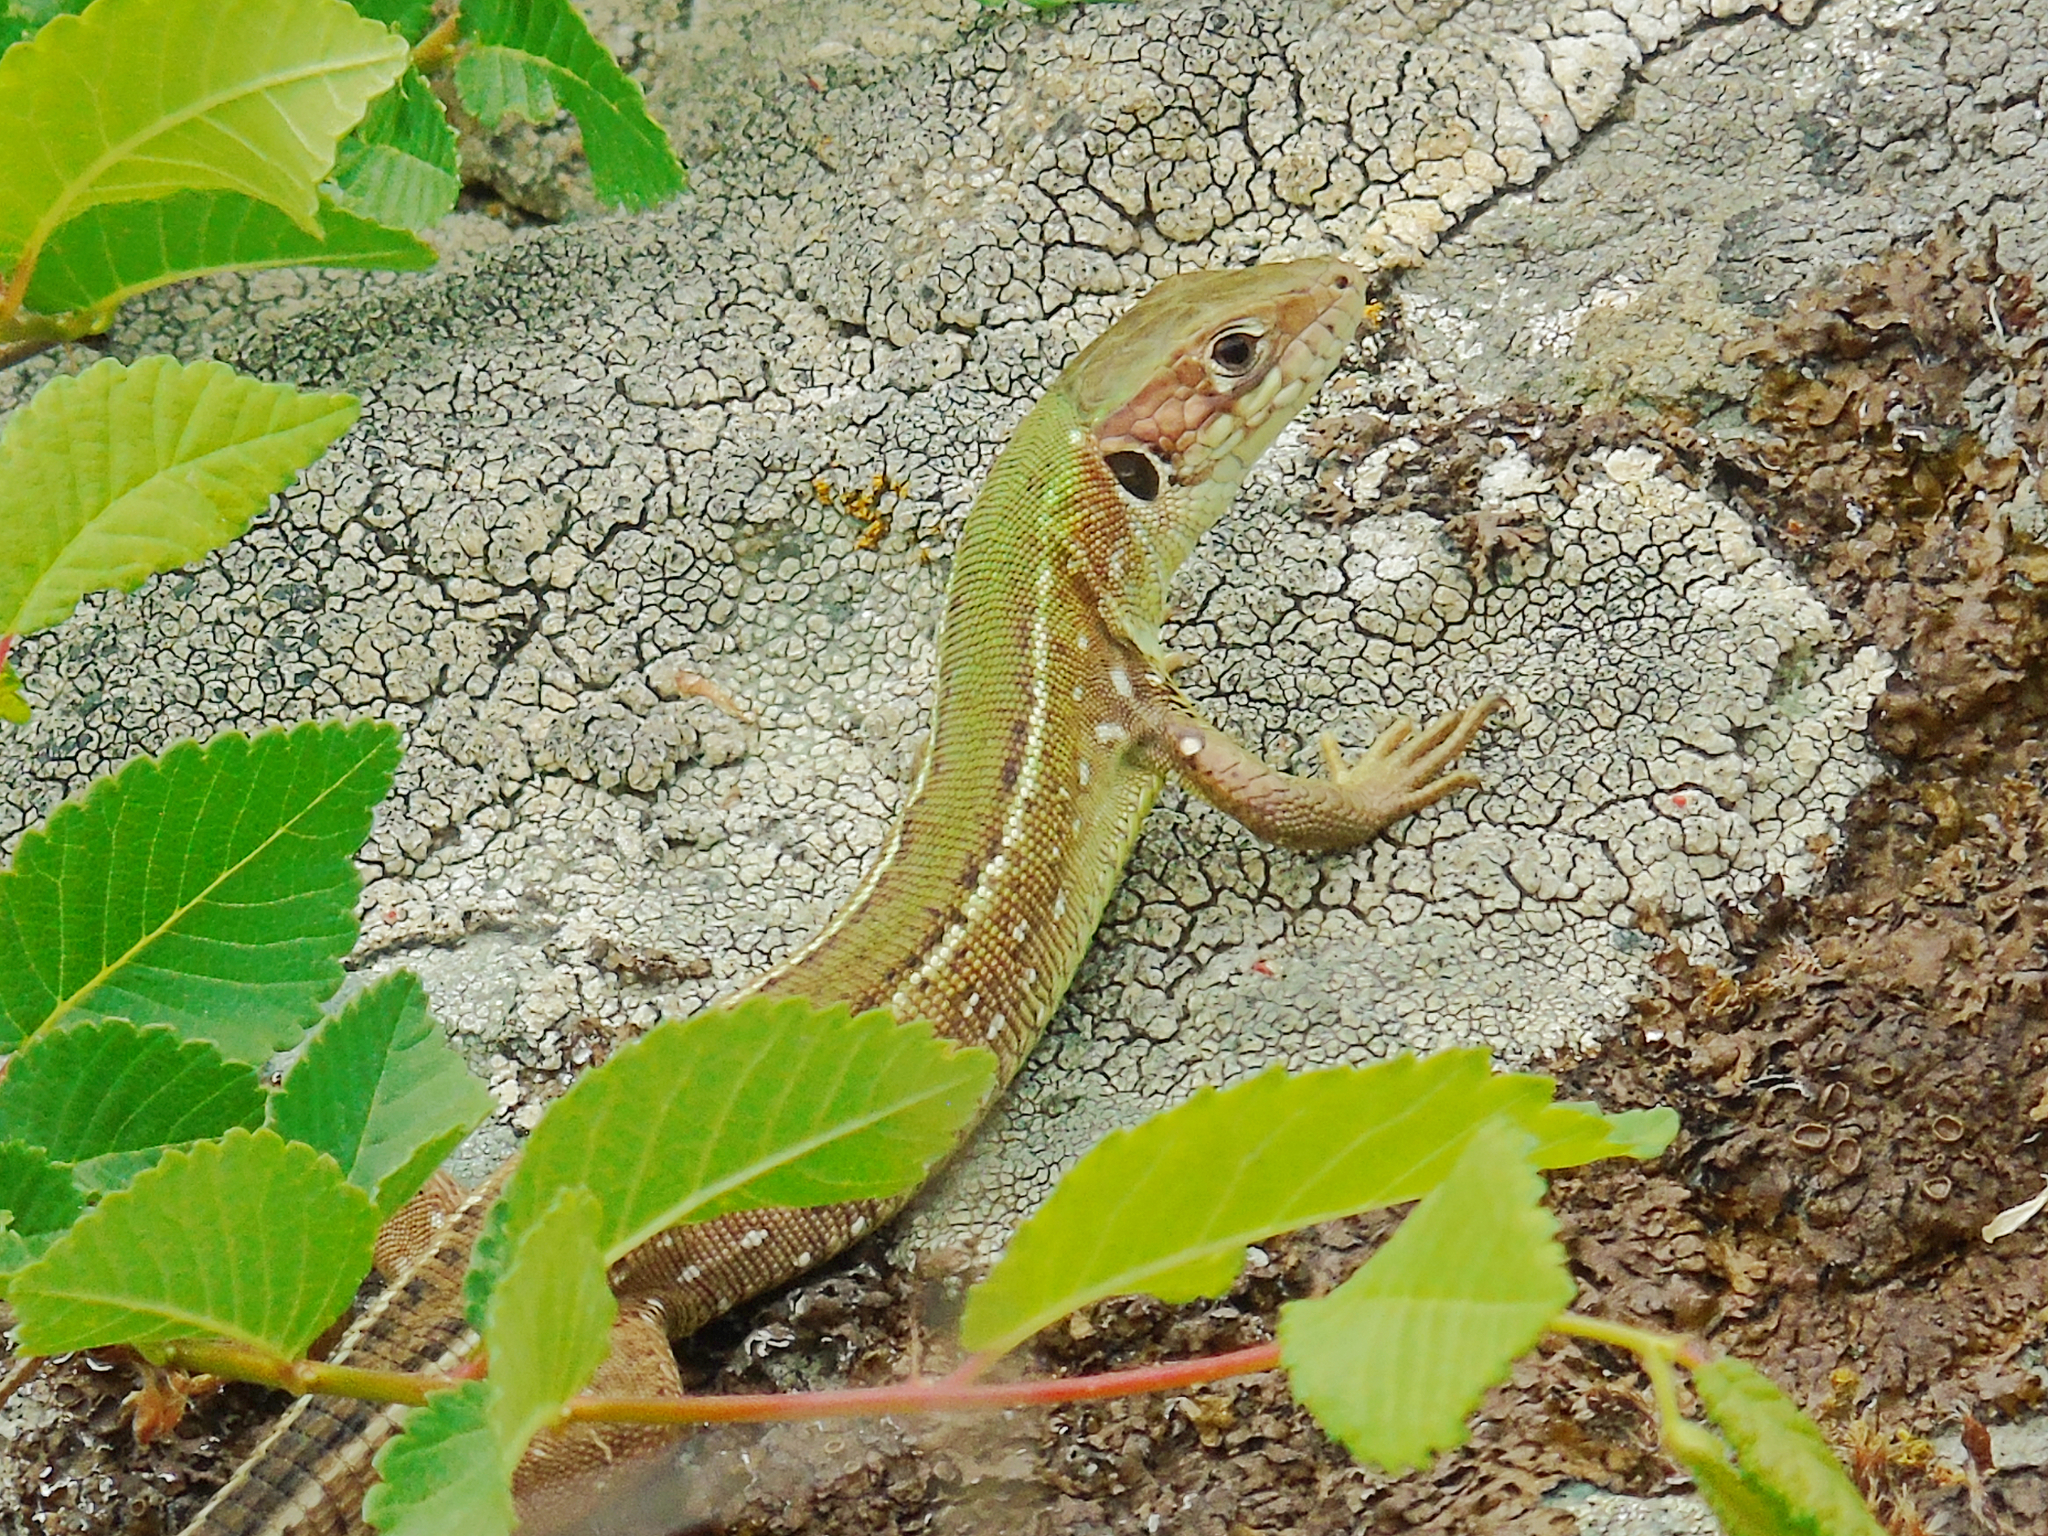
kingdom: Animalia
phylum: Chordata
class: Squamata
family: Lacertidae
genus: Lacerta
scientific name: Lacerta viridis
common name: European green lizard
